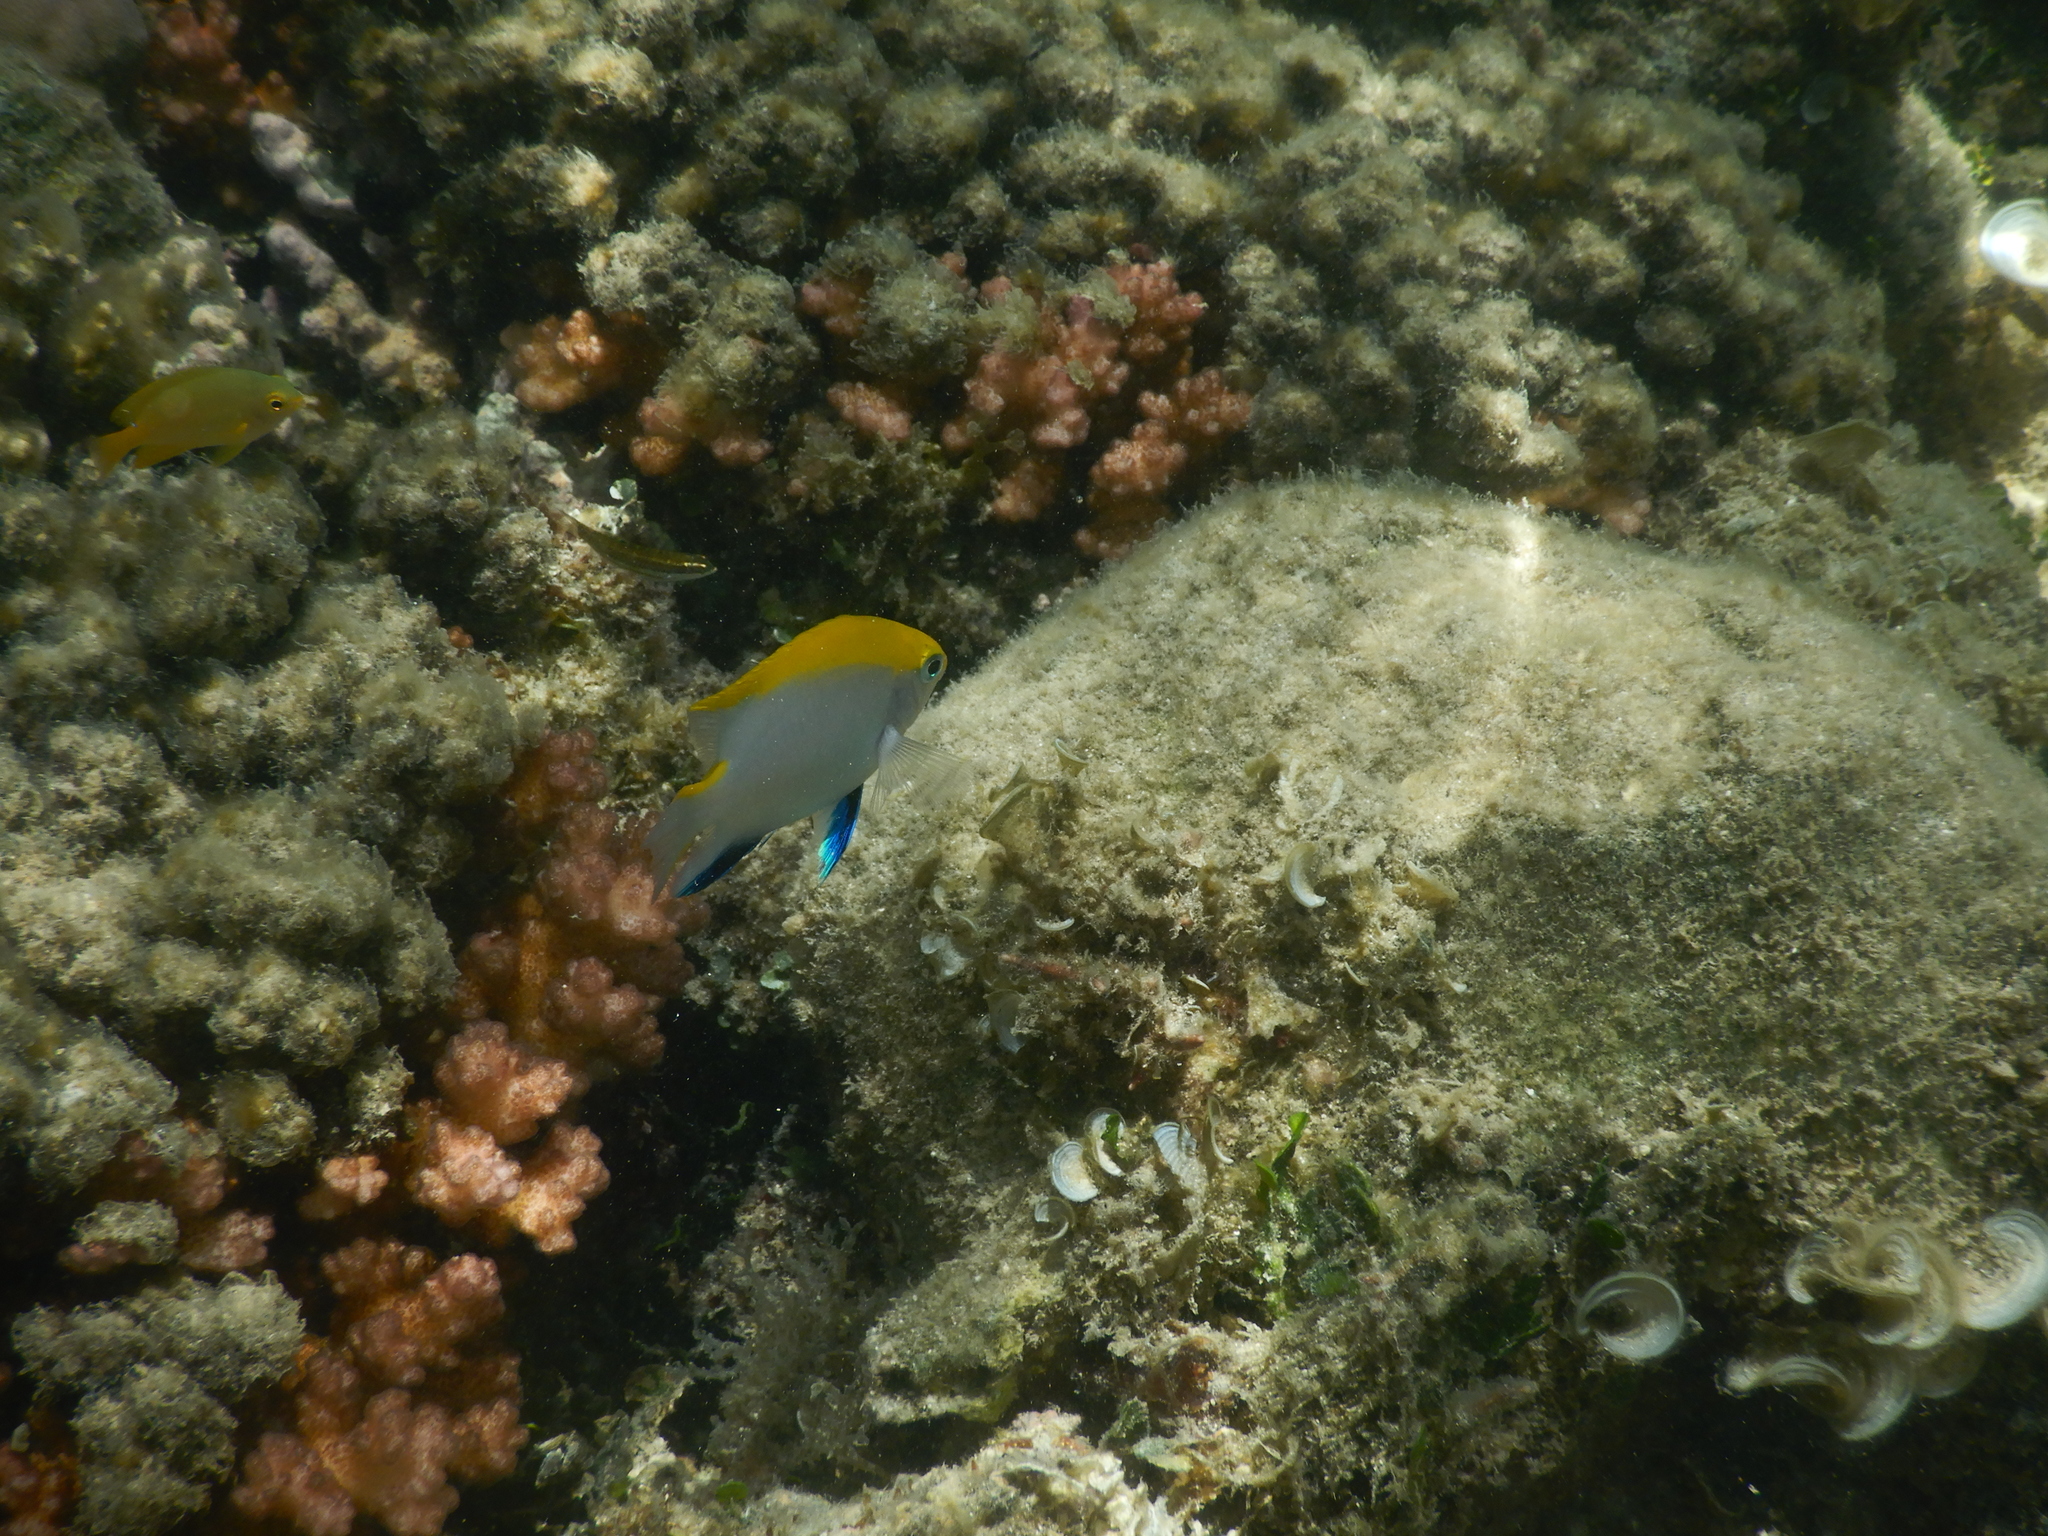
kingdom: Animalia
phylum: Chordata
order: Perciformes
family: Pomacentridae
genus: Neoglyphidodon
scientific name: Neoglyphidodon melas
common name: Black damsel
